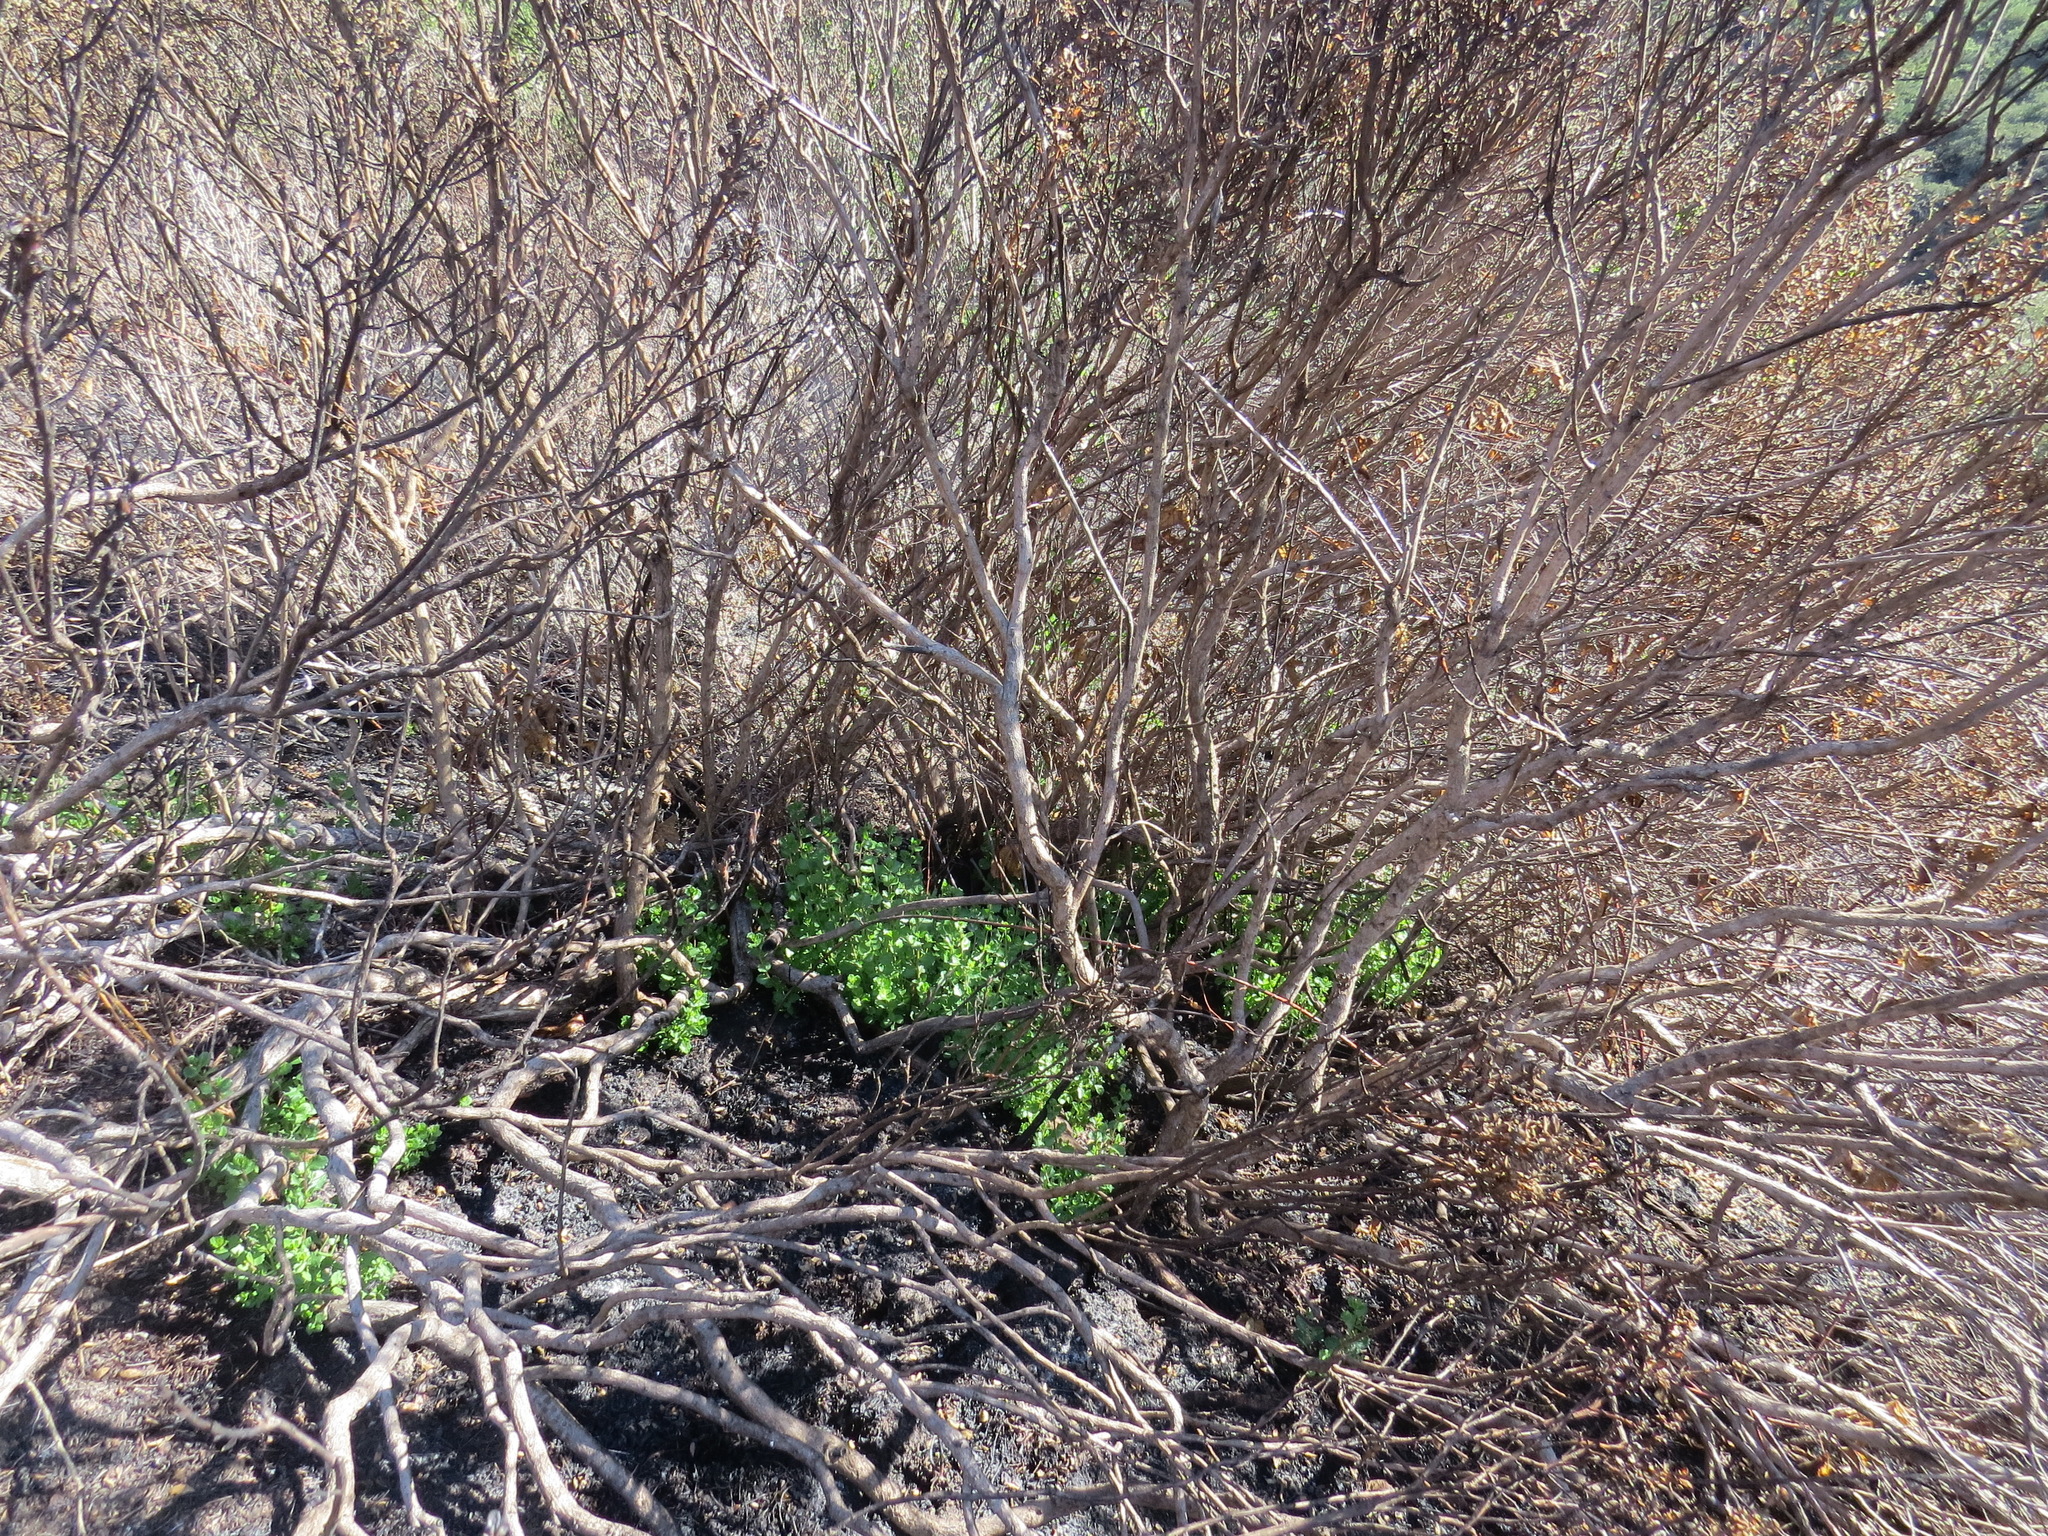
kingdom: Plantae
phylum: Tracheophyta
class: Magnoliopsida
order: Asterales
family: Asteraceae
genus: Baccharis
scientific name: Baccharis pilularis
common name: Coyotebrush
